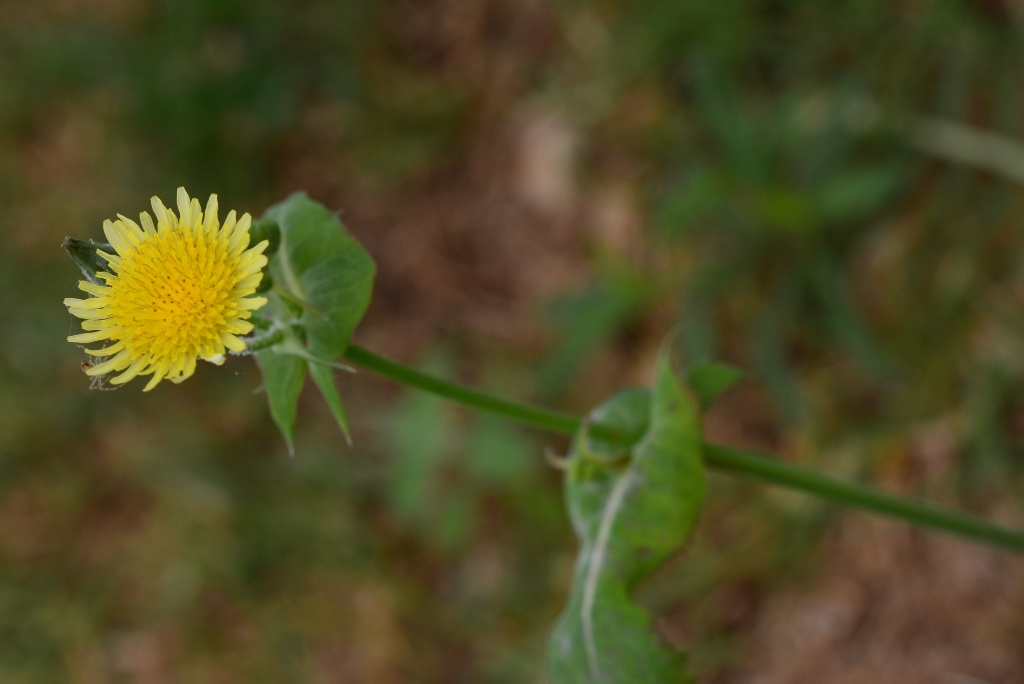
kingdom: Plantae
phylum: Tracheophyta
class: Magnoliopsida
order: Asterales
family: Asteraceae
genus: Sonchus
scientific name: Sonchus oleraceus
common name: Common sowthistle
